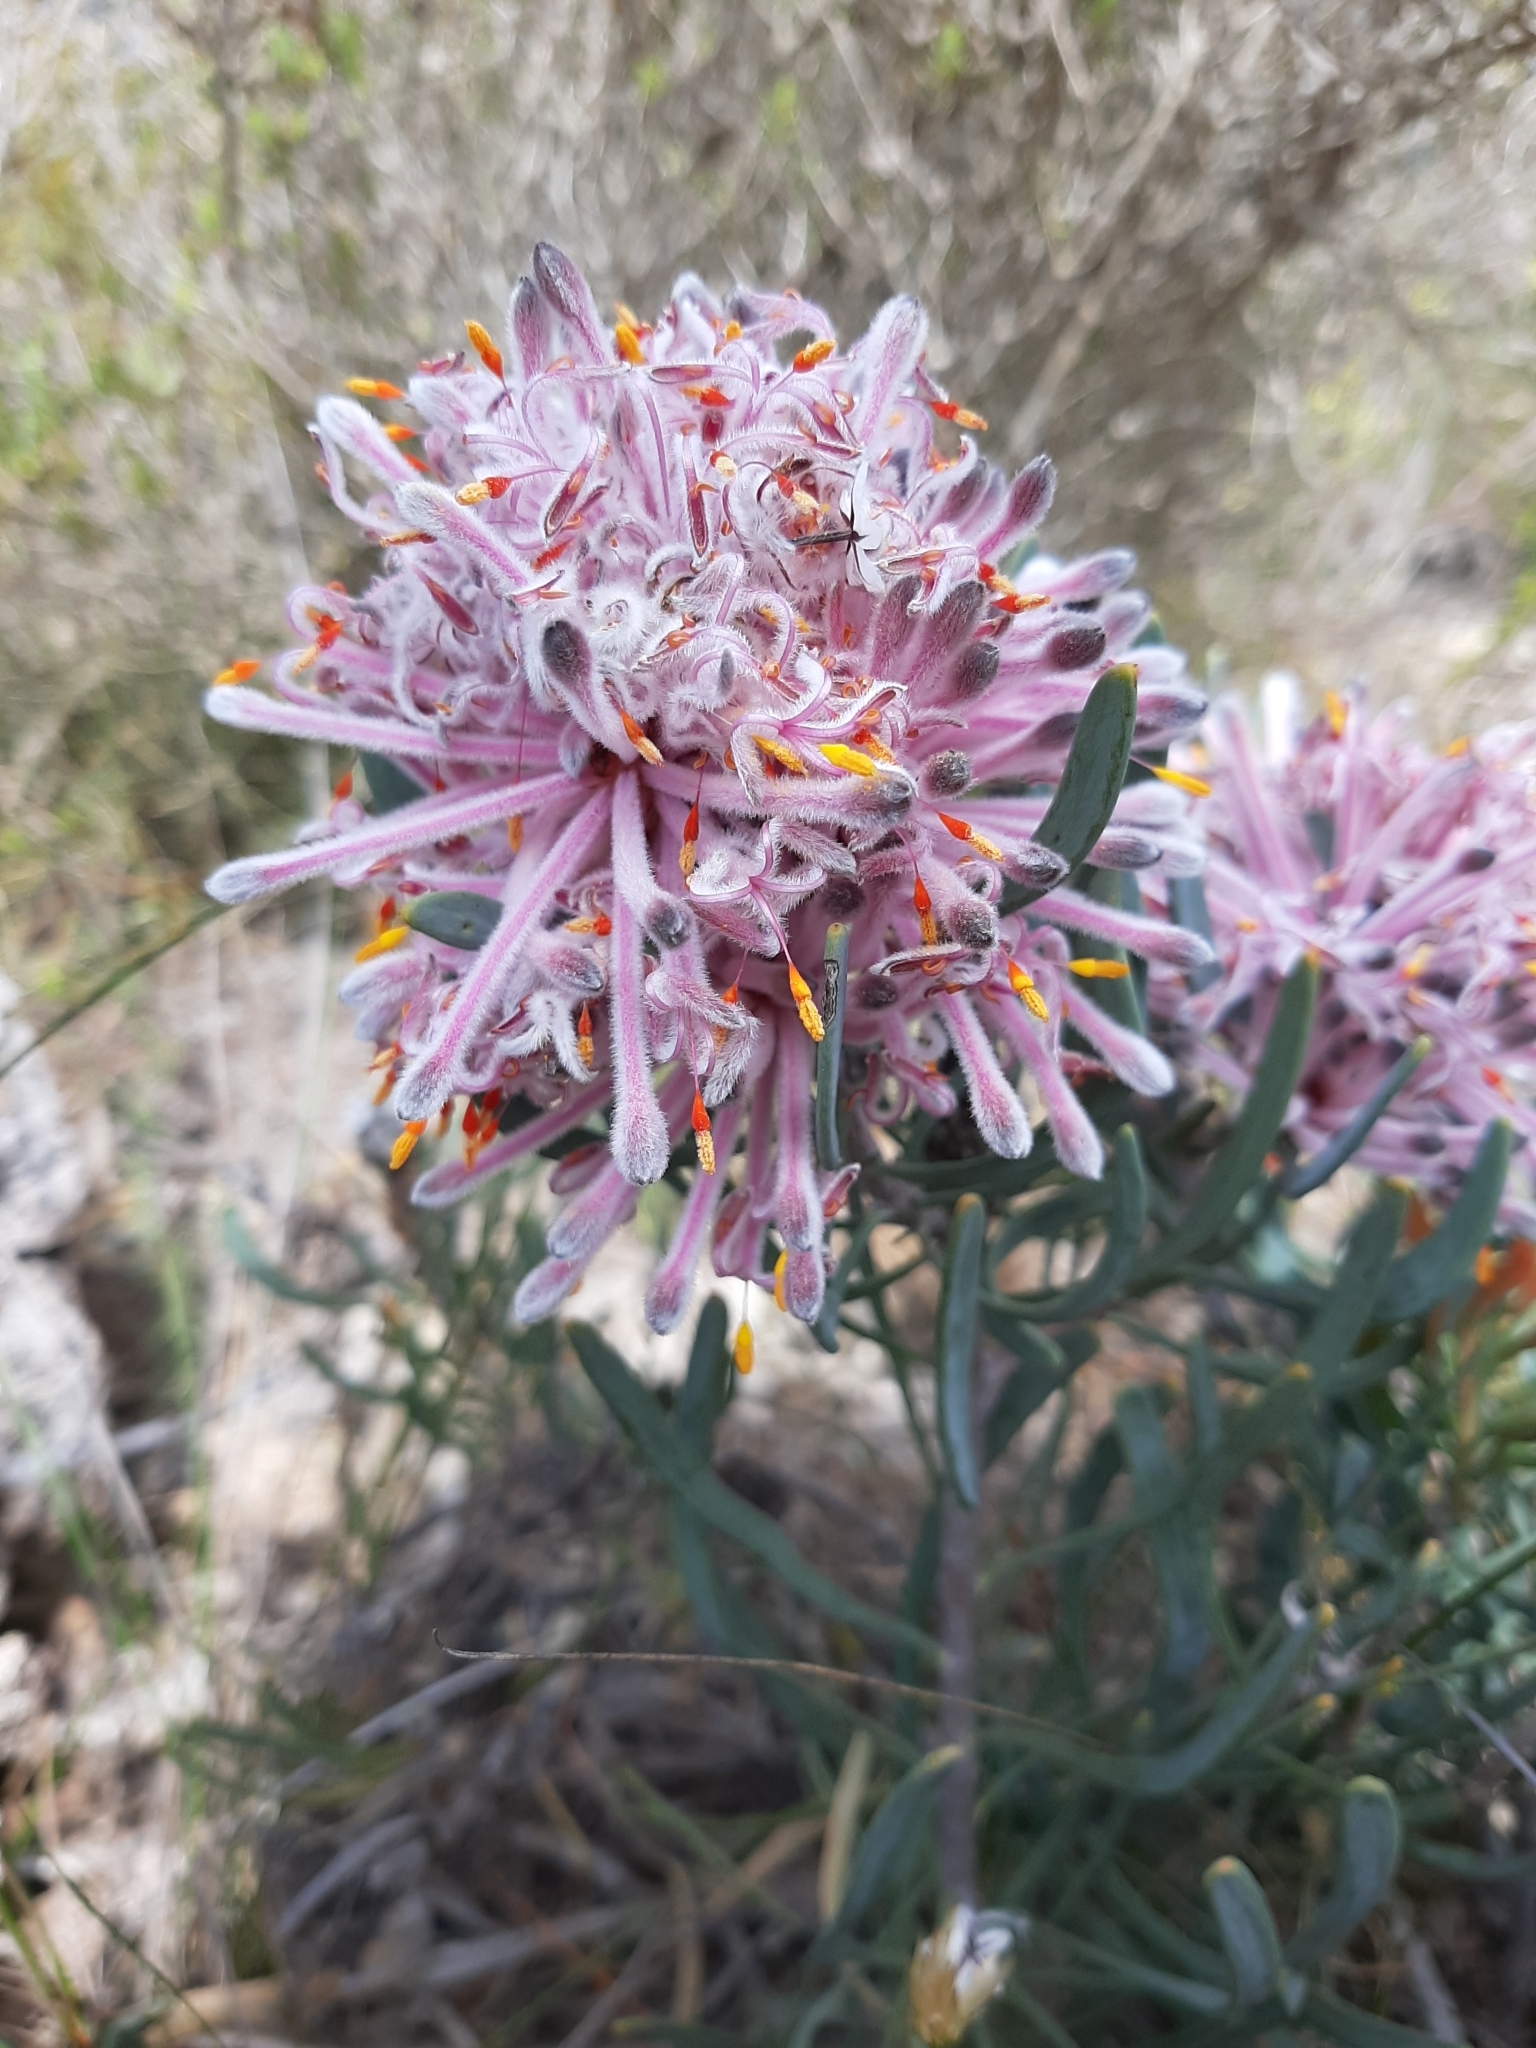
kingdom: Plantae
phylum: Tracheophyta
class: Magnoliopsida
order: Proteales
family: Proteaceae
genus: Petrophile
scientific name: Petrophile linearis
